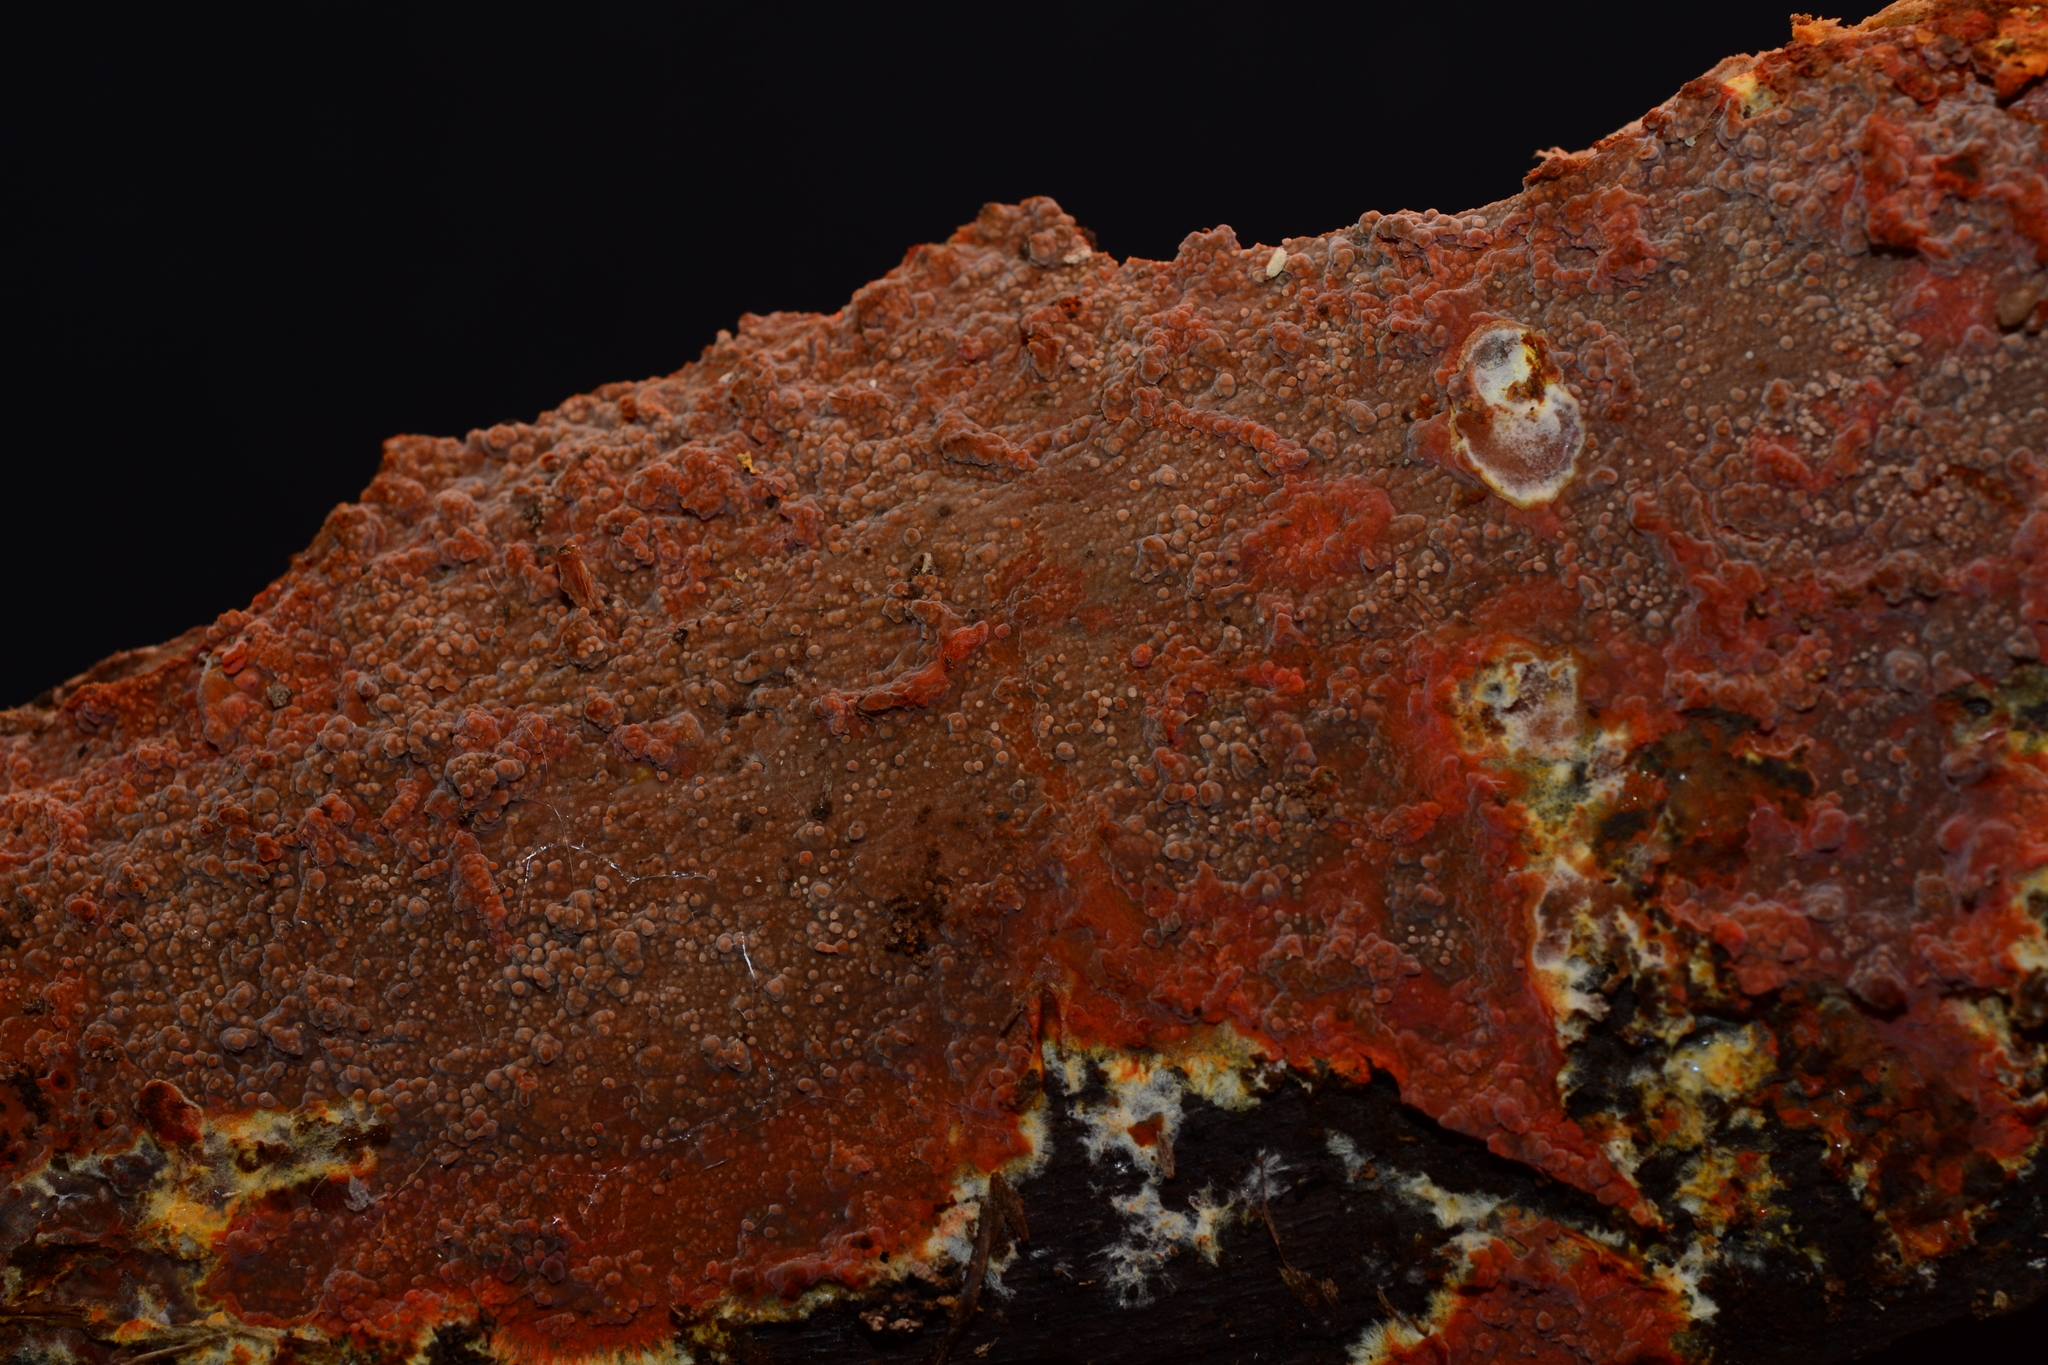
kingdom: Fungi
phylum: Basidiomycota
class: Agaricomycetes
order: Polyporales
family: Meruliaceae
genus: Phlebia
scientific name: Phlebia coccineofulva
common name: Scarlet waxcrust
